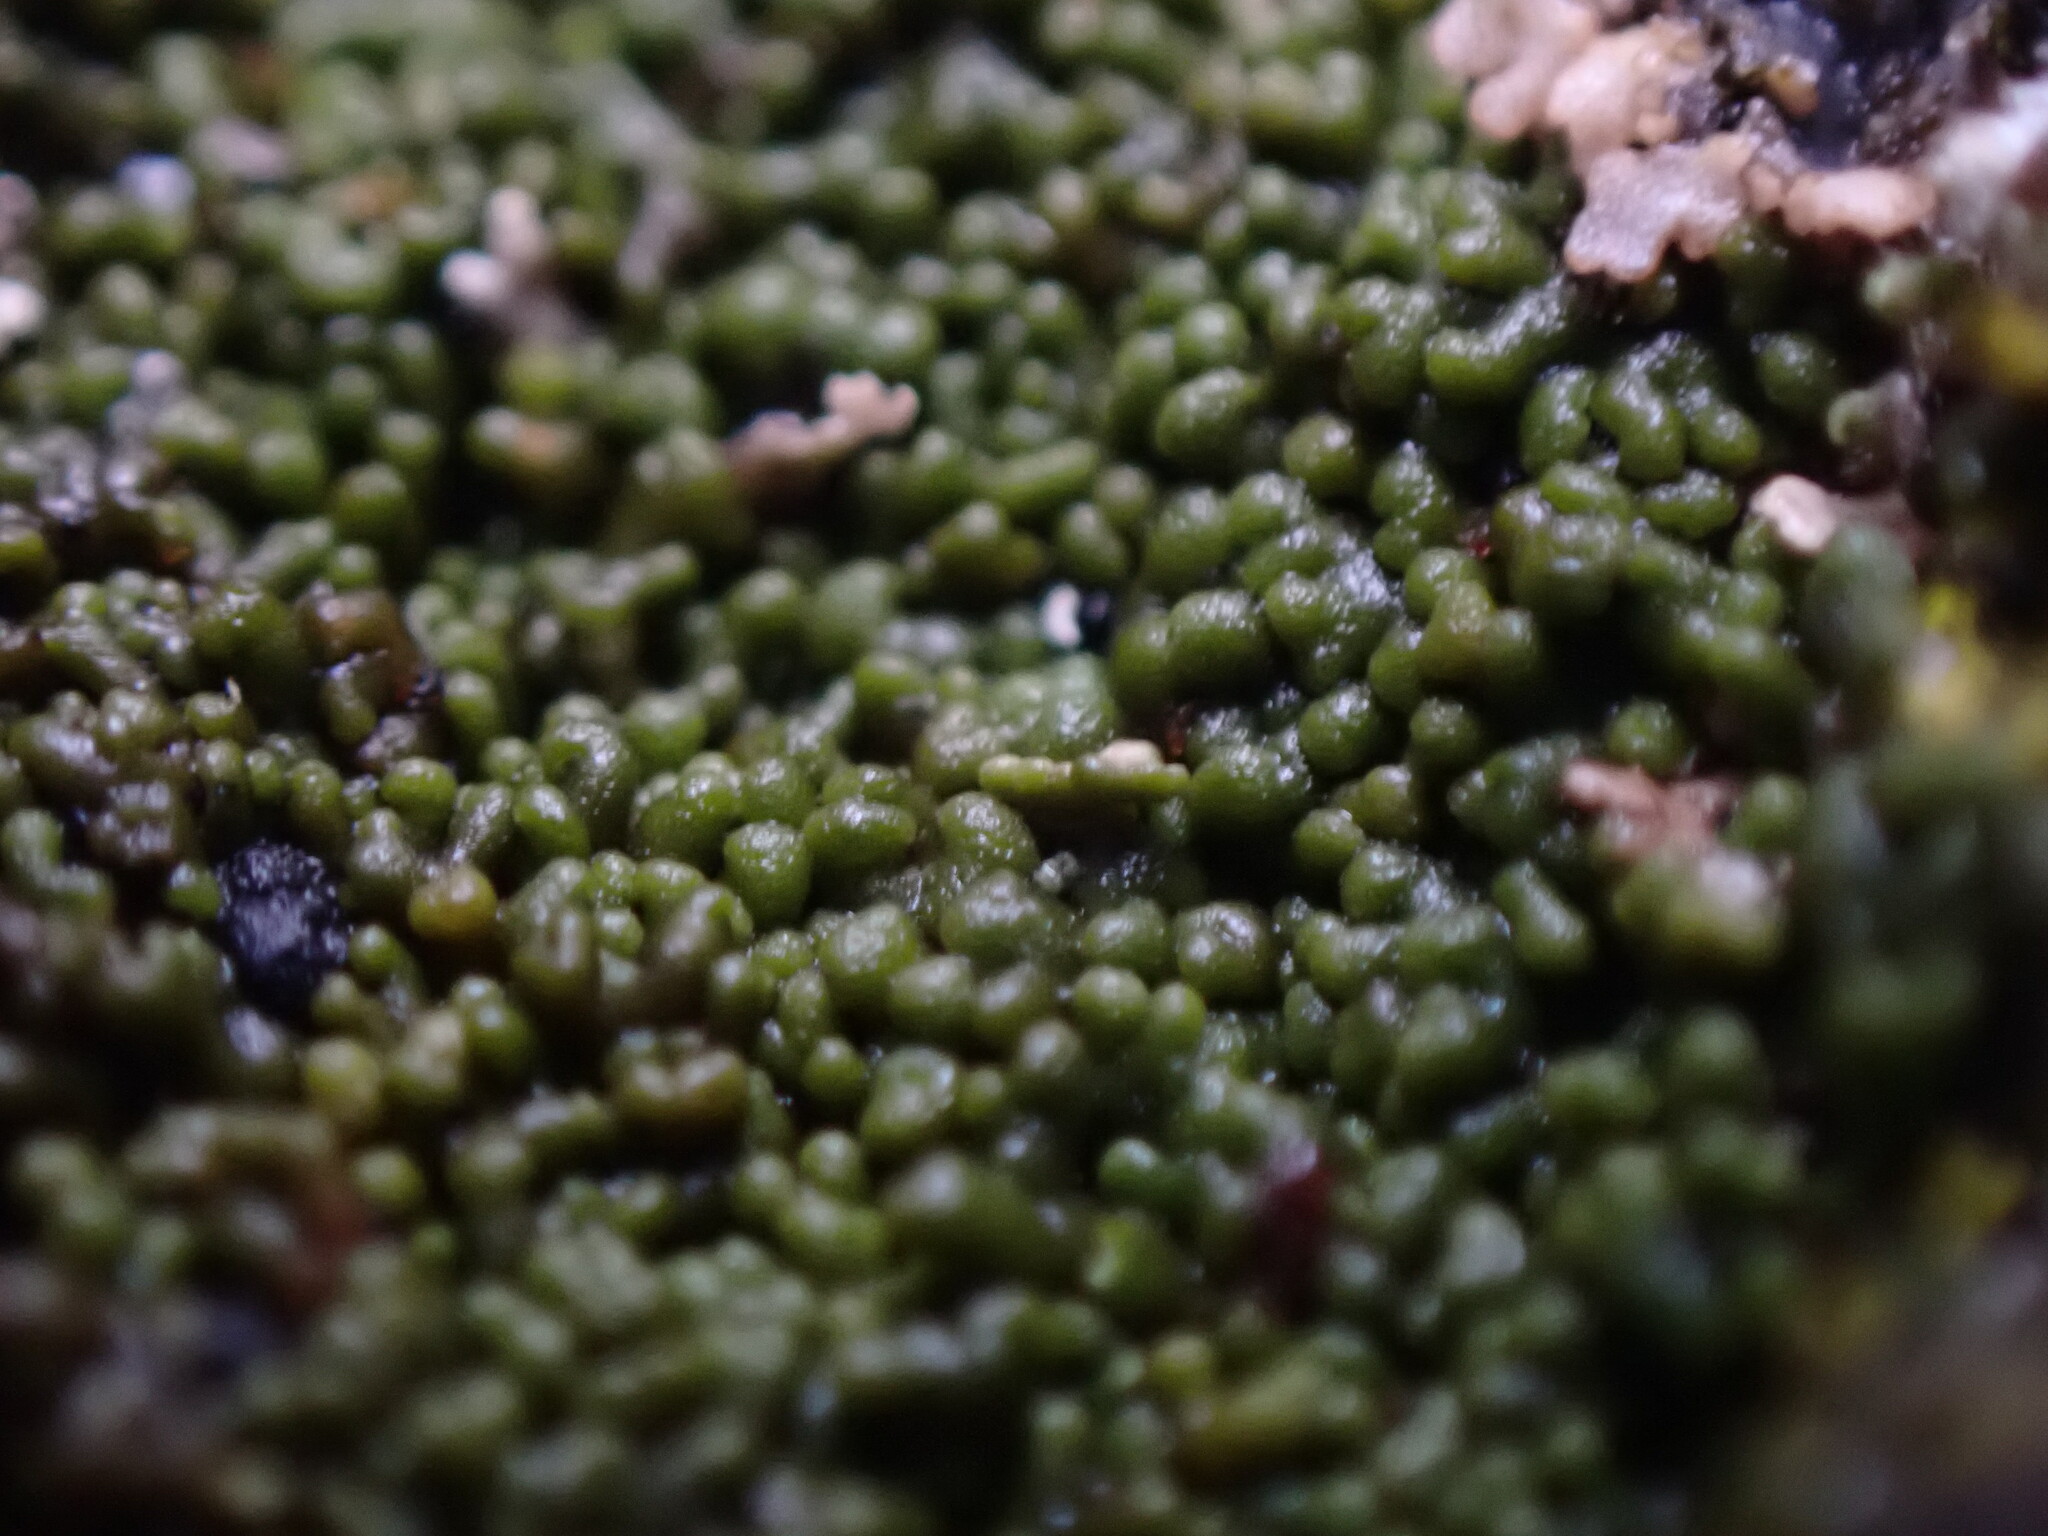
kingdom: Fungi
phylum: Ascomycota
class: Lecanoromycetes
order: Caliciales
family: Caliciaceae
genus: Buellia
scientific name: Buellia badia
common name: Parasitic button lichen
